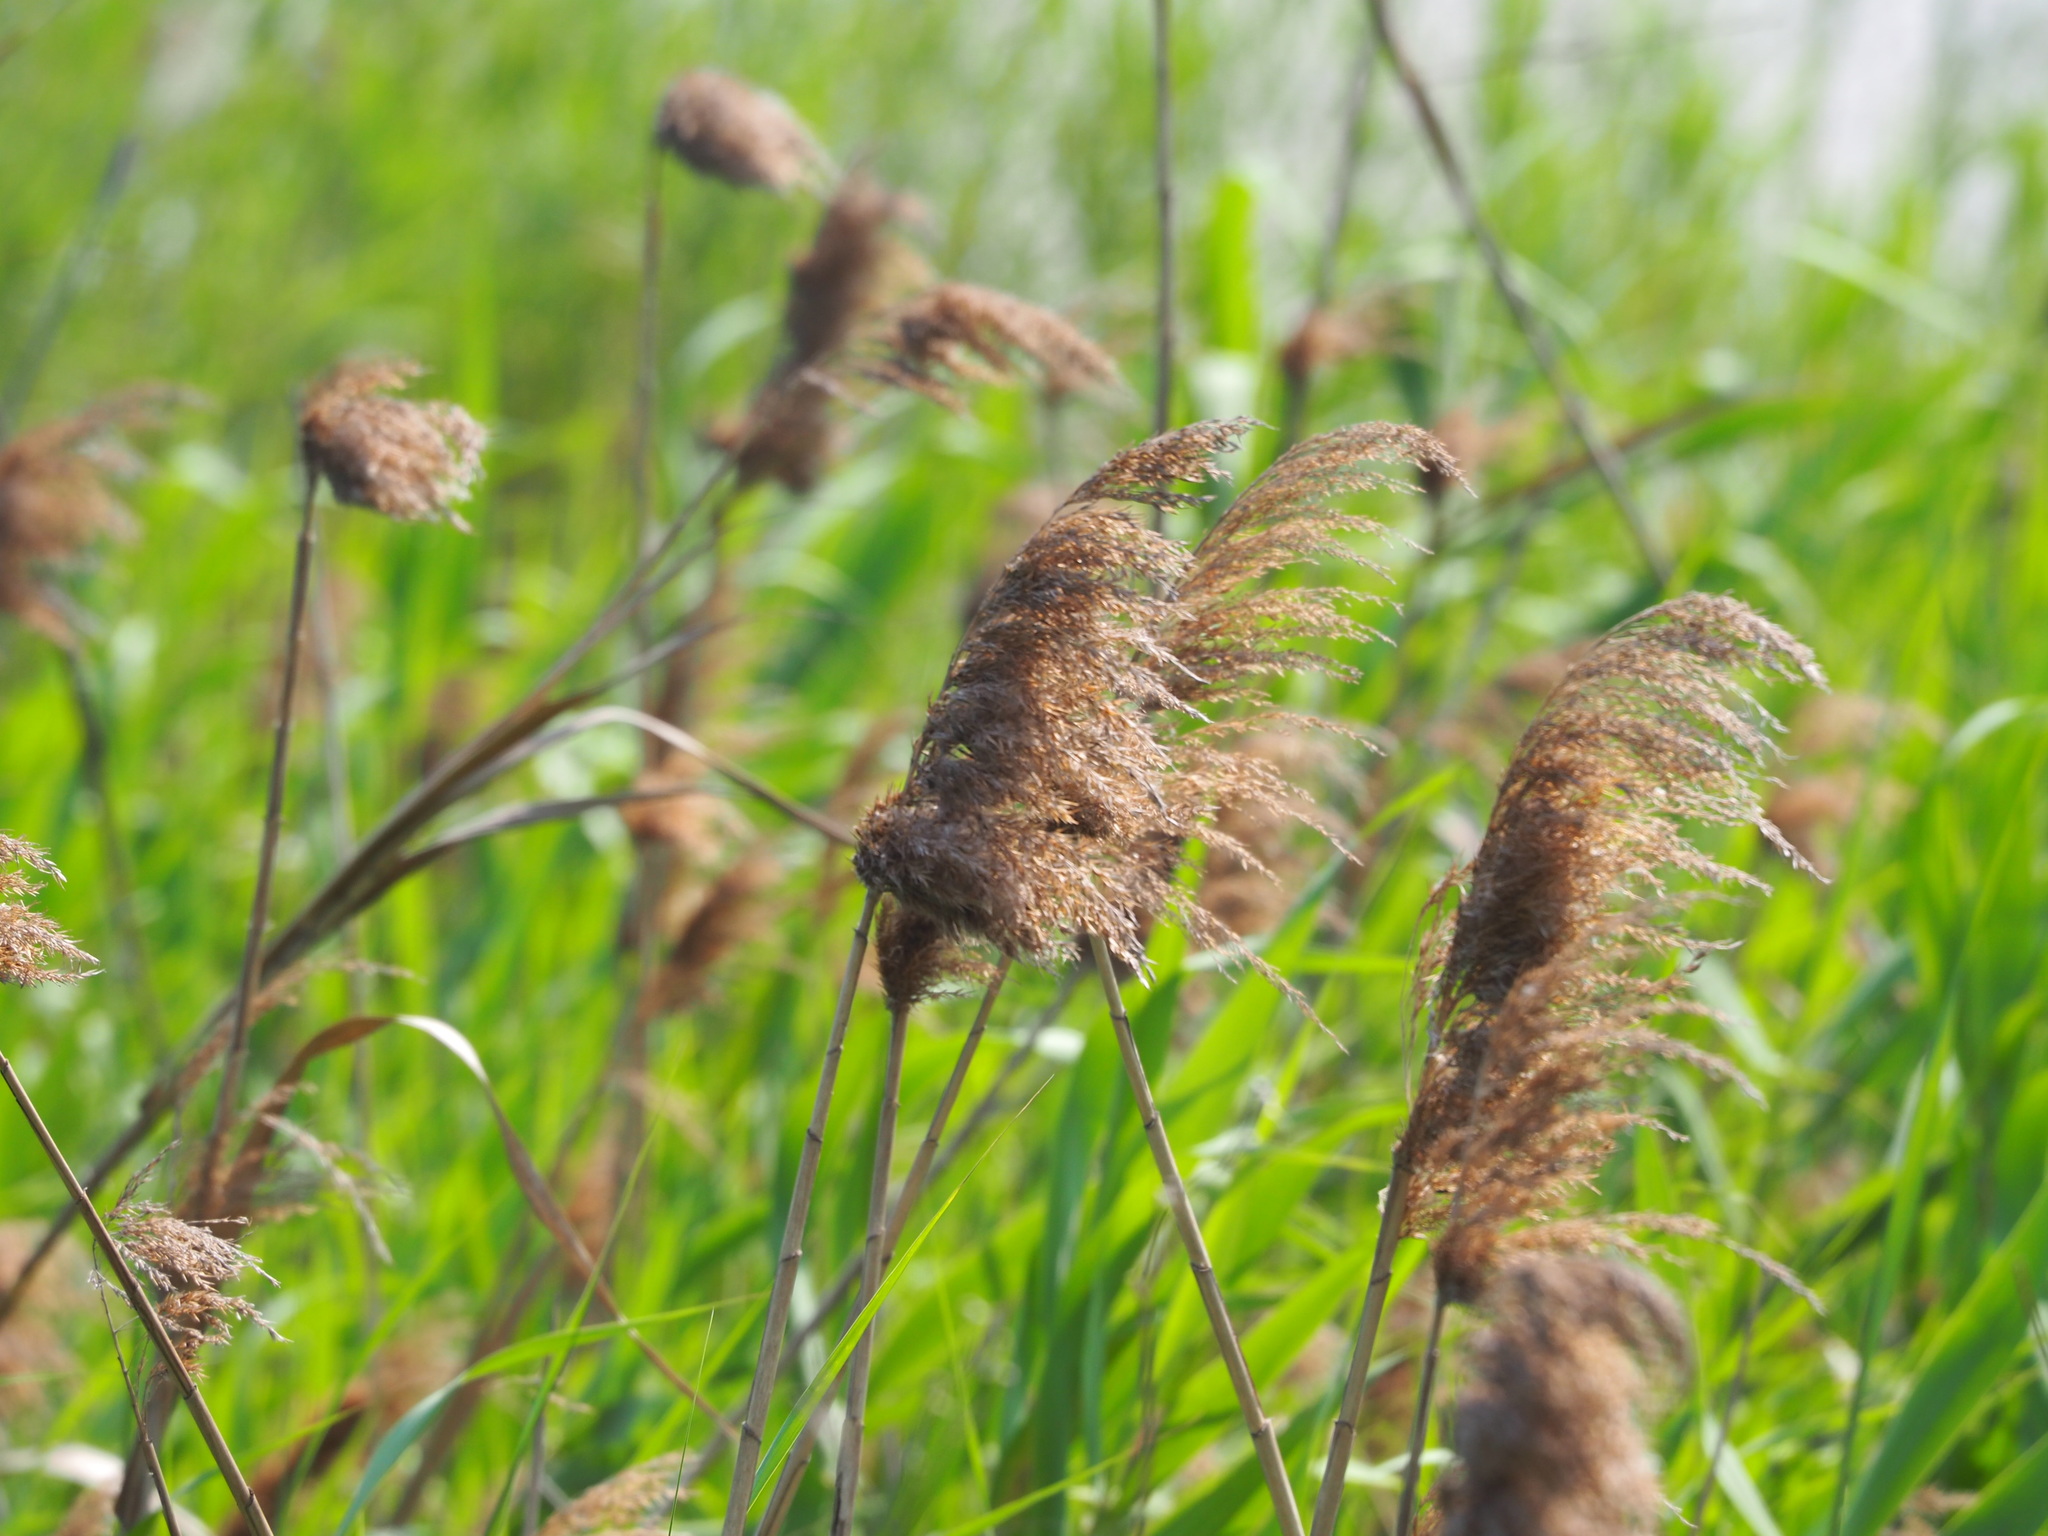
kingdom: Plantae
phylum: Tracheophyta
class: Liliopsida
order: Poales
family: Poaceae
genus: Phragmites
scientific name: Phragmites australis
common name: Common reed
